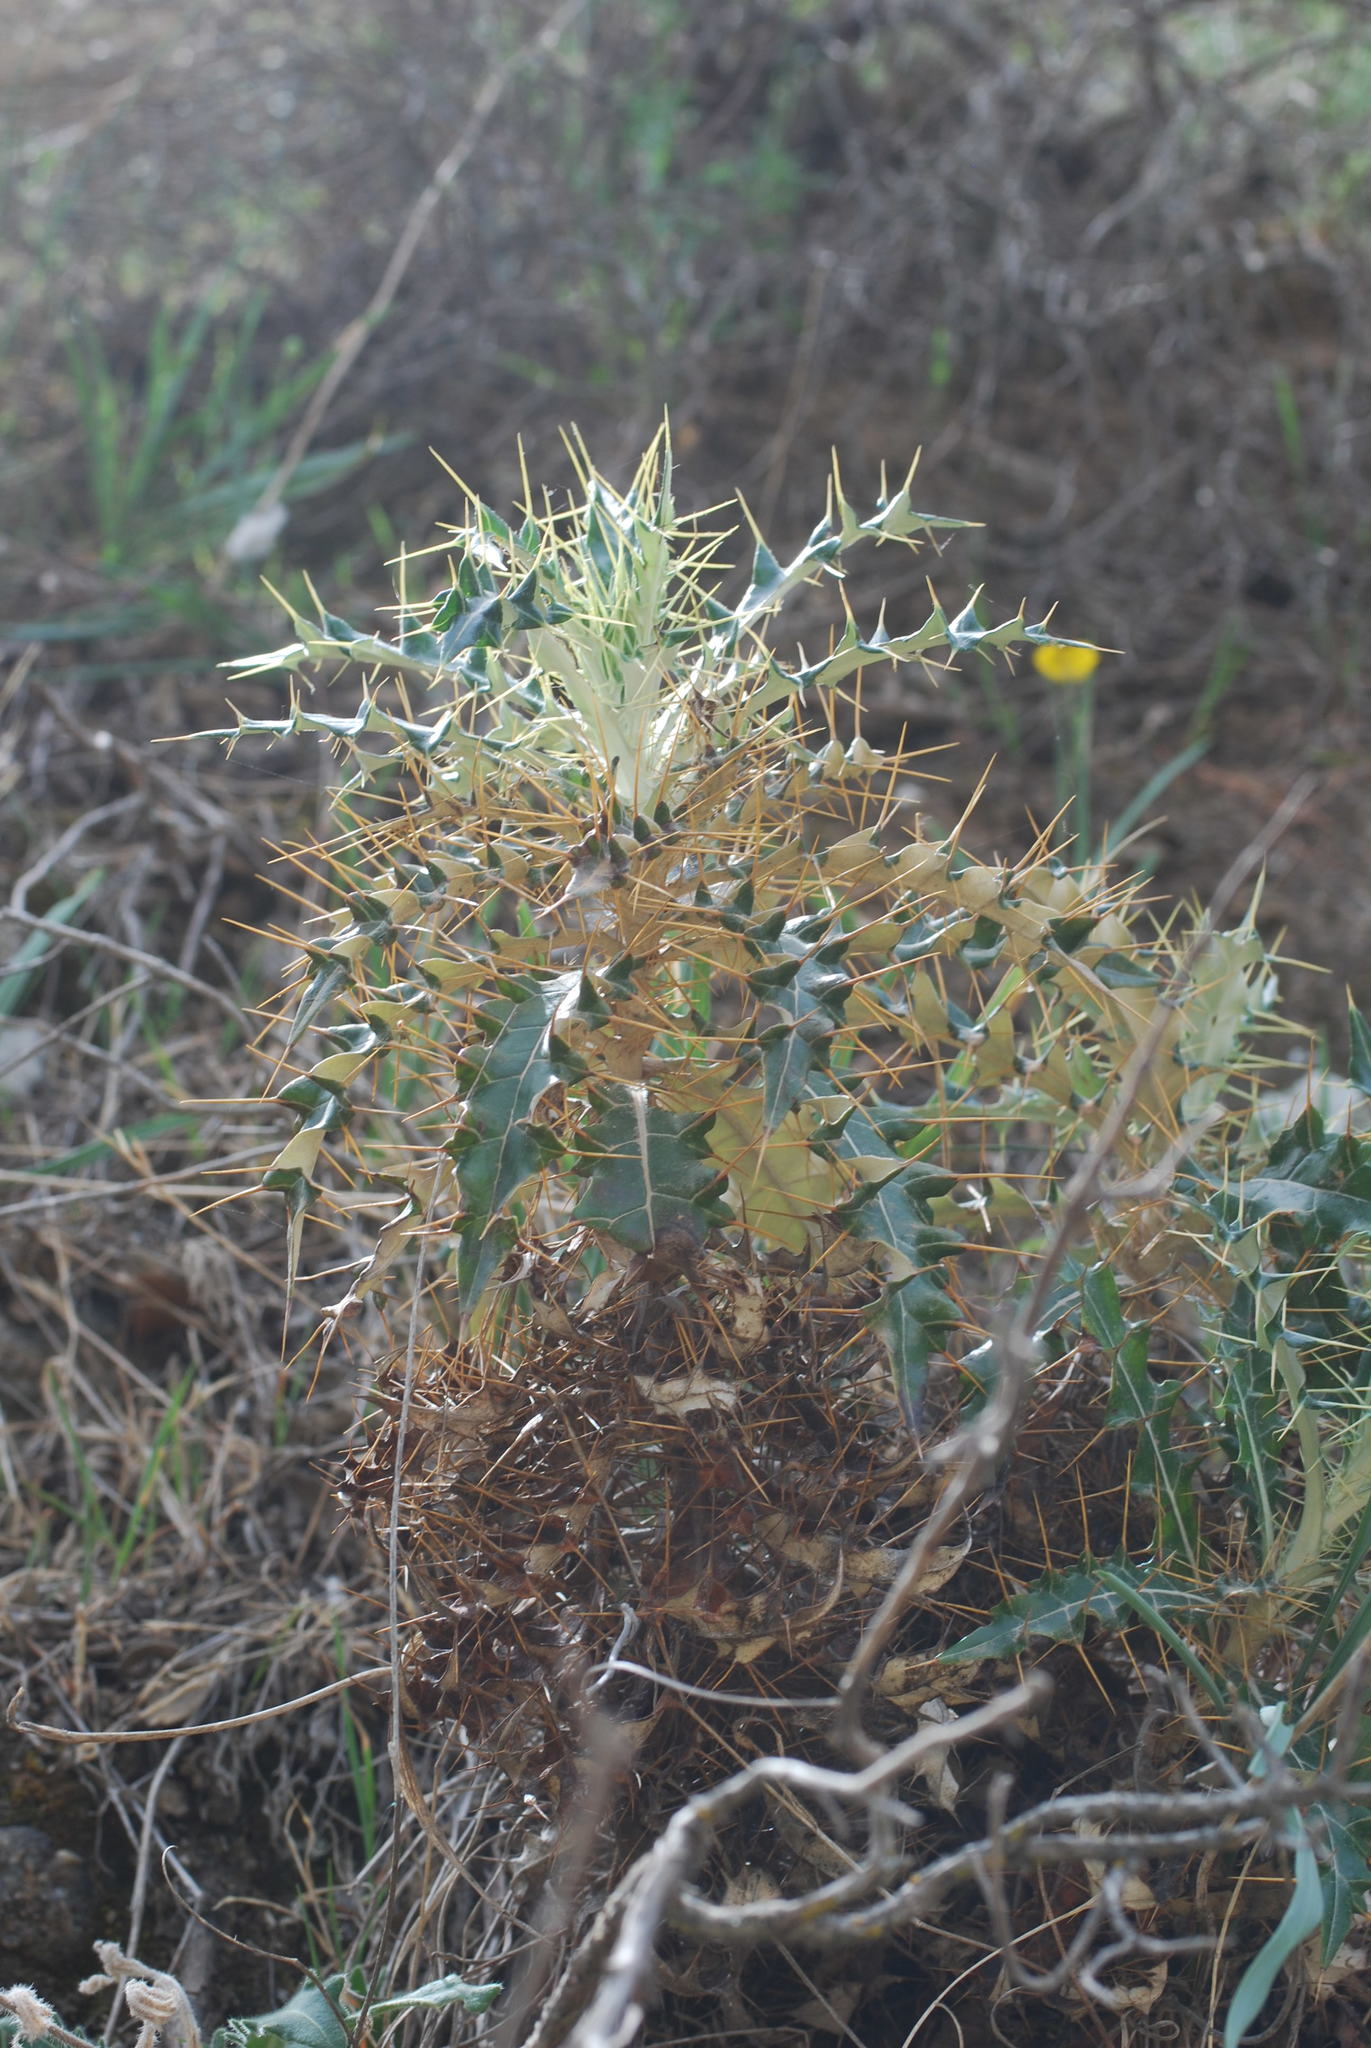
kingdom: Plantae
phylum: Tracheophyta
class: Magnoliopsida
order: Asterales
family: Asteraceae
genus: Ptilostemon
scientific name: Ptilostemon hispanicus
